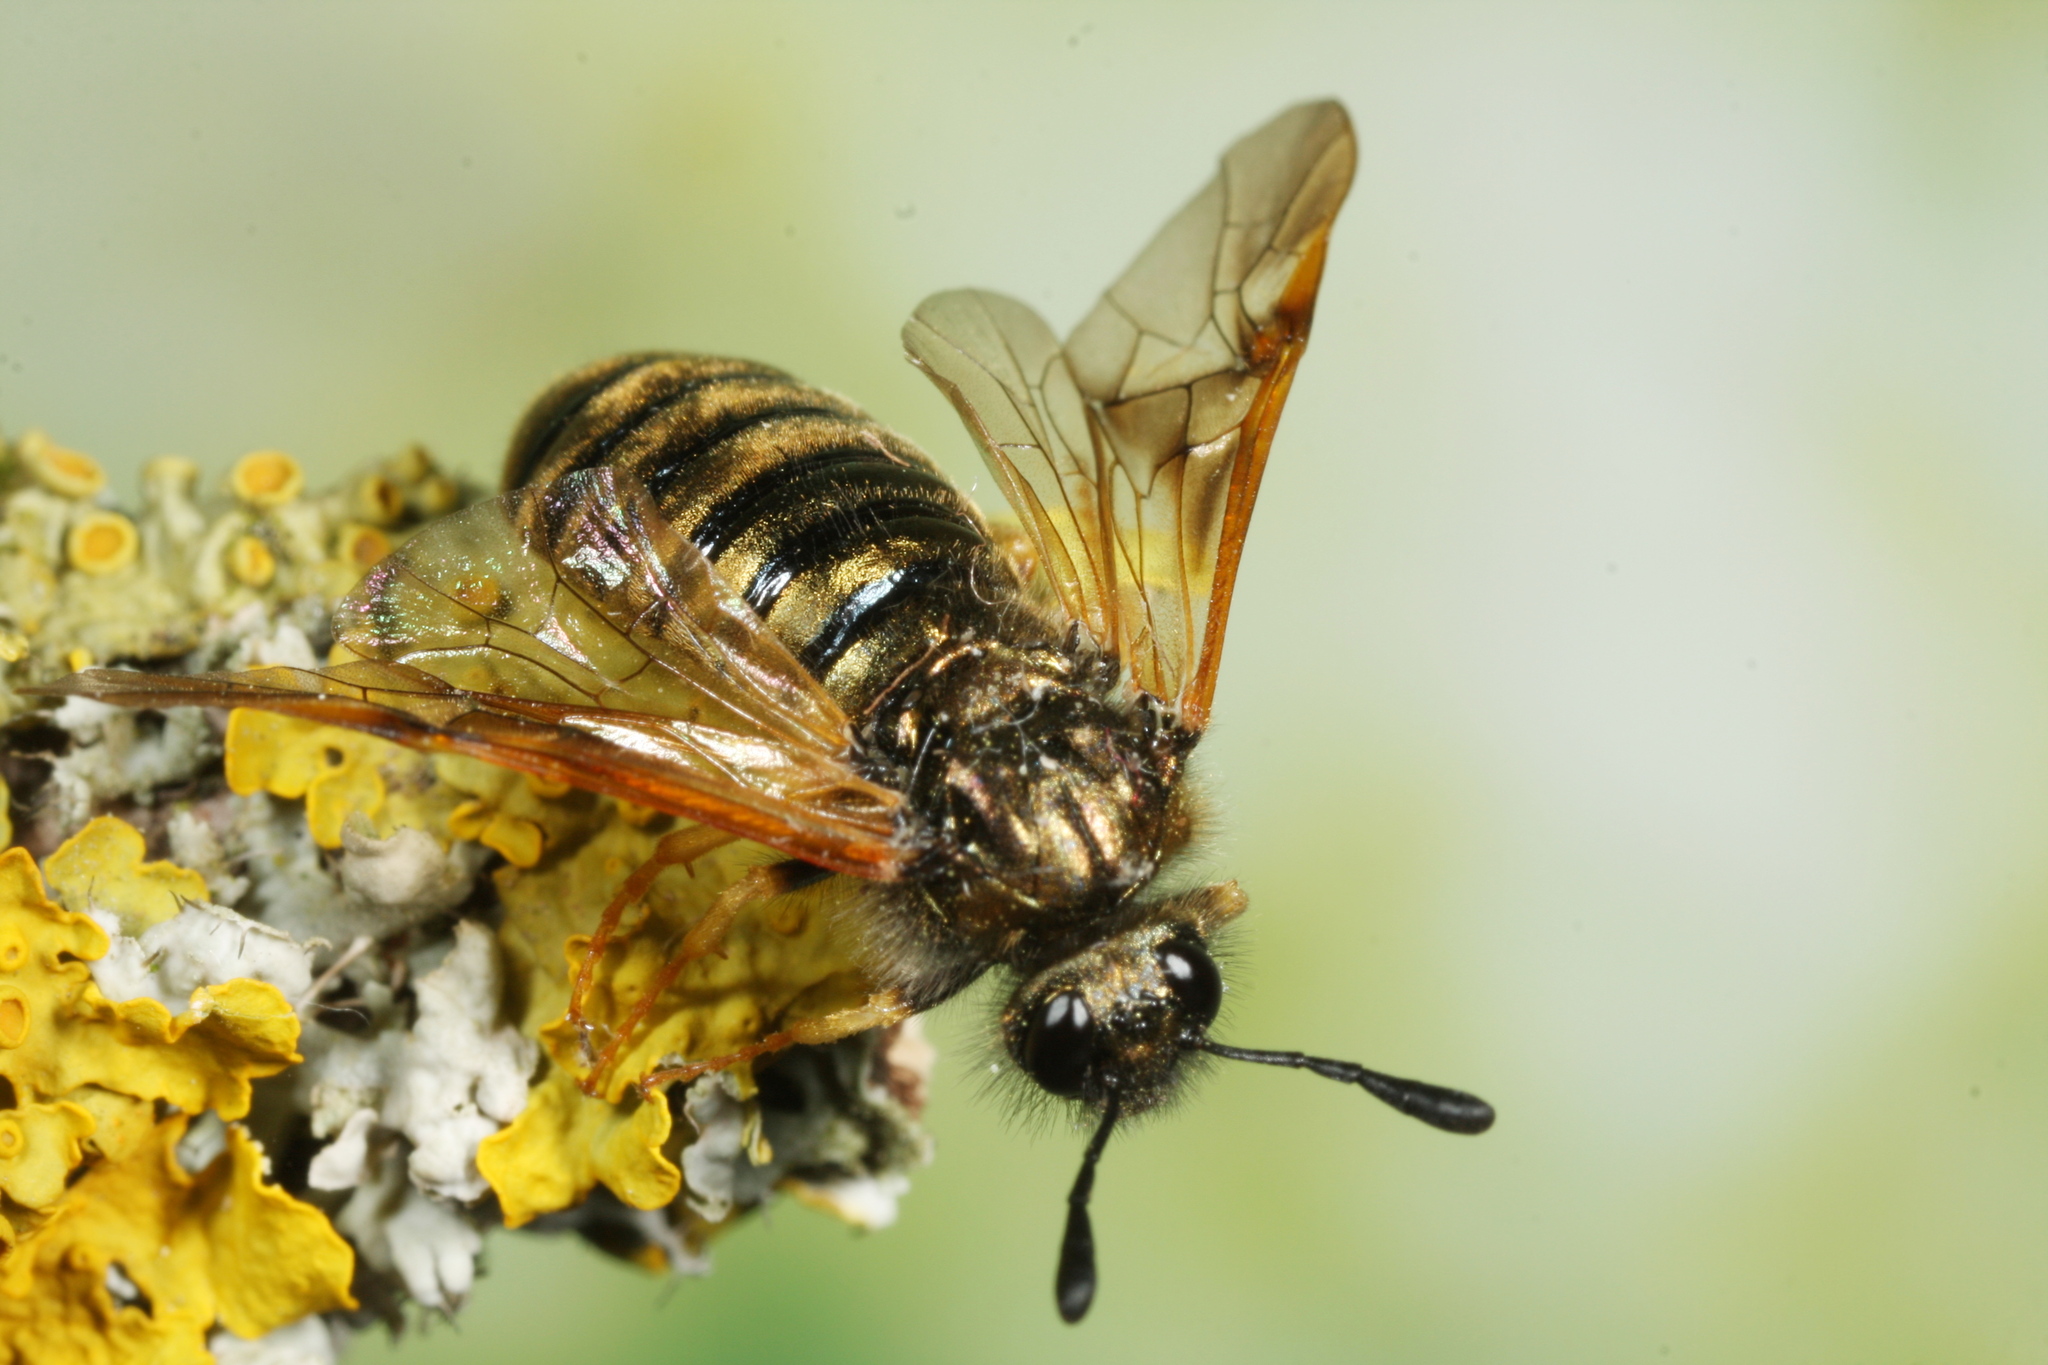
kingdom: Animalia
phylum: Arthropoda
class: Insecta
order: Hymenoptera
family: Cimbicidae
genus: Abia
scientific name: Abia aenea
